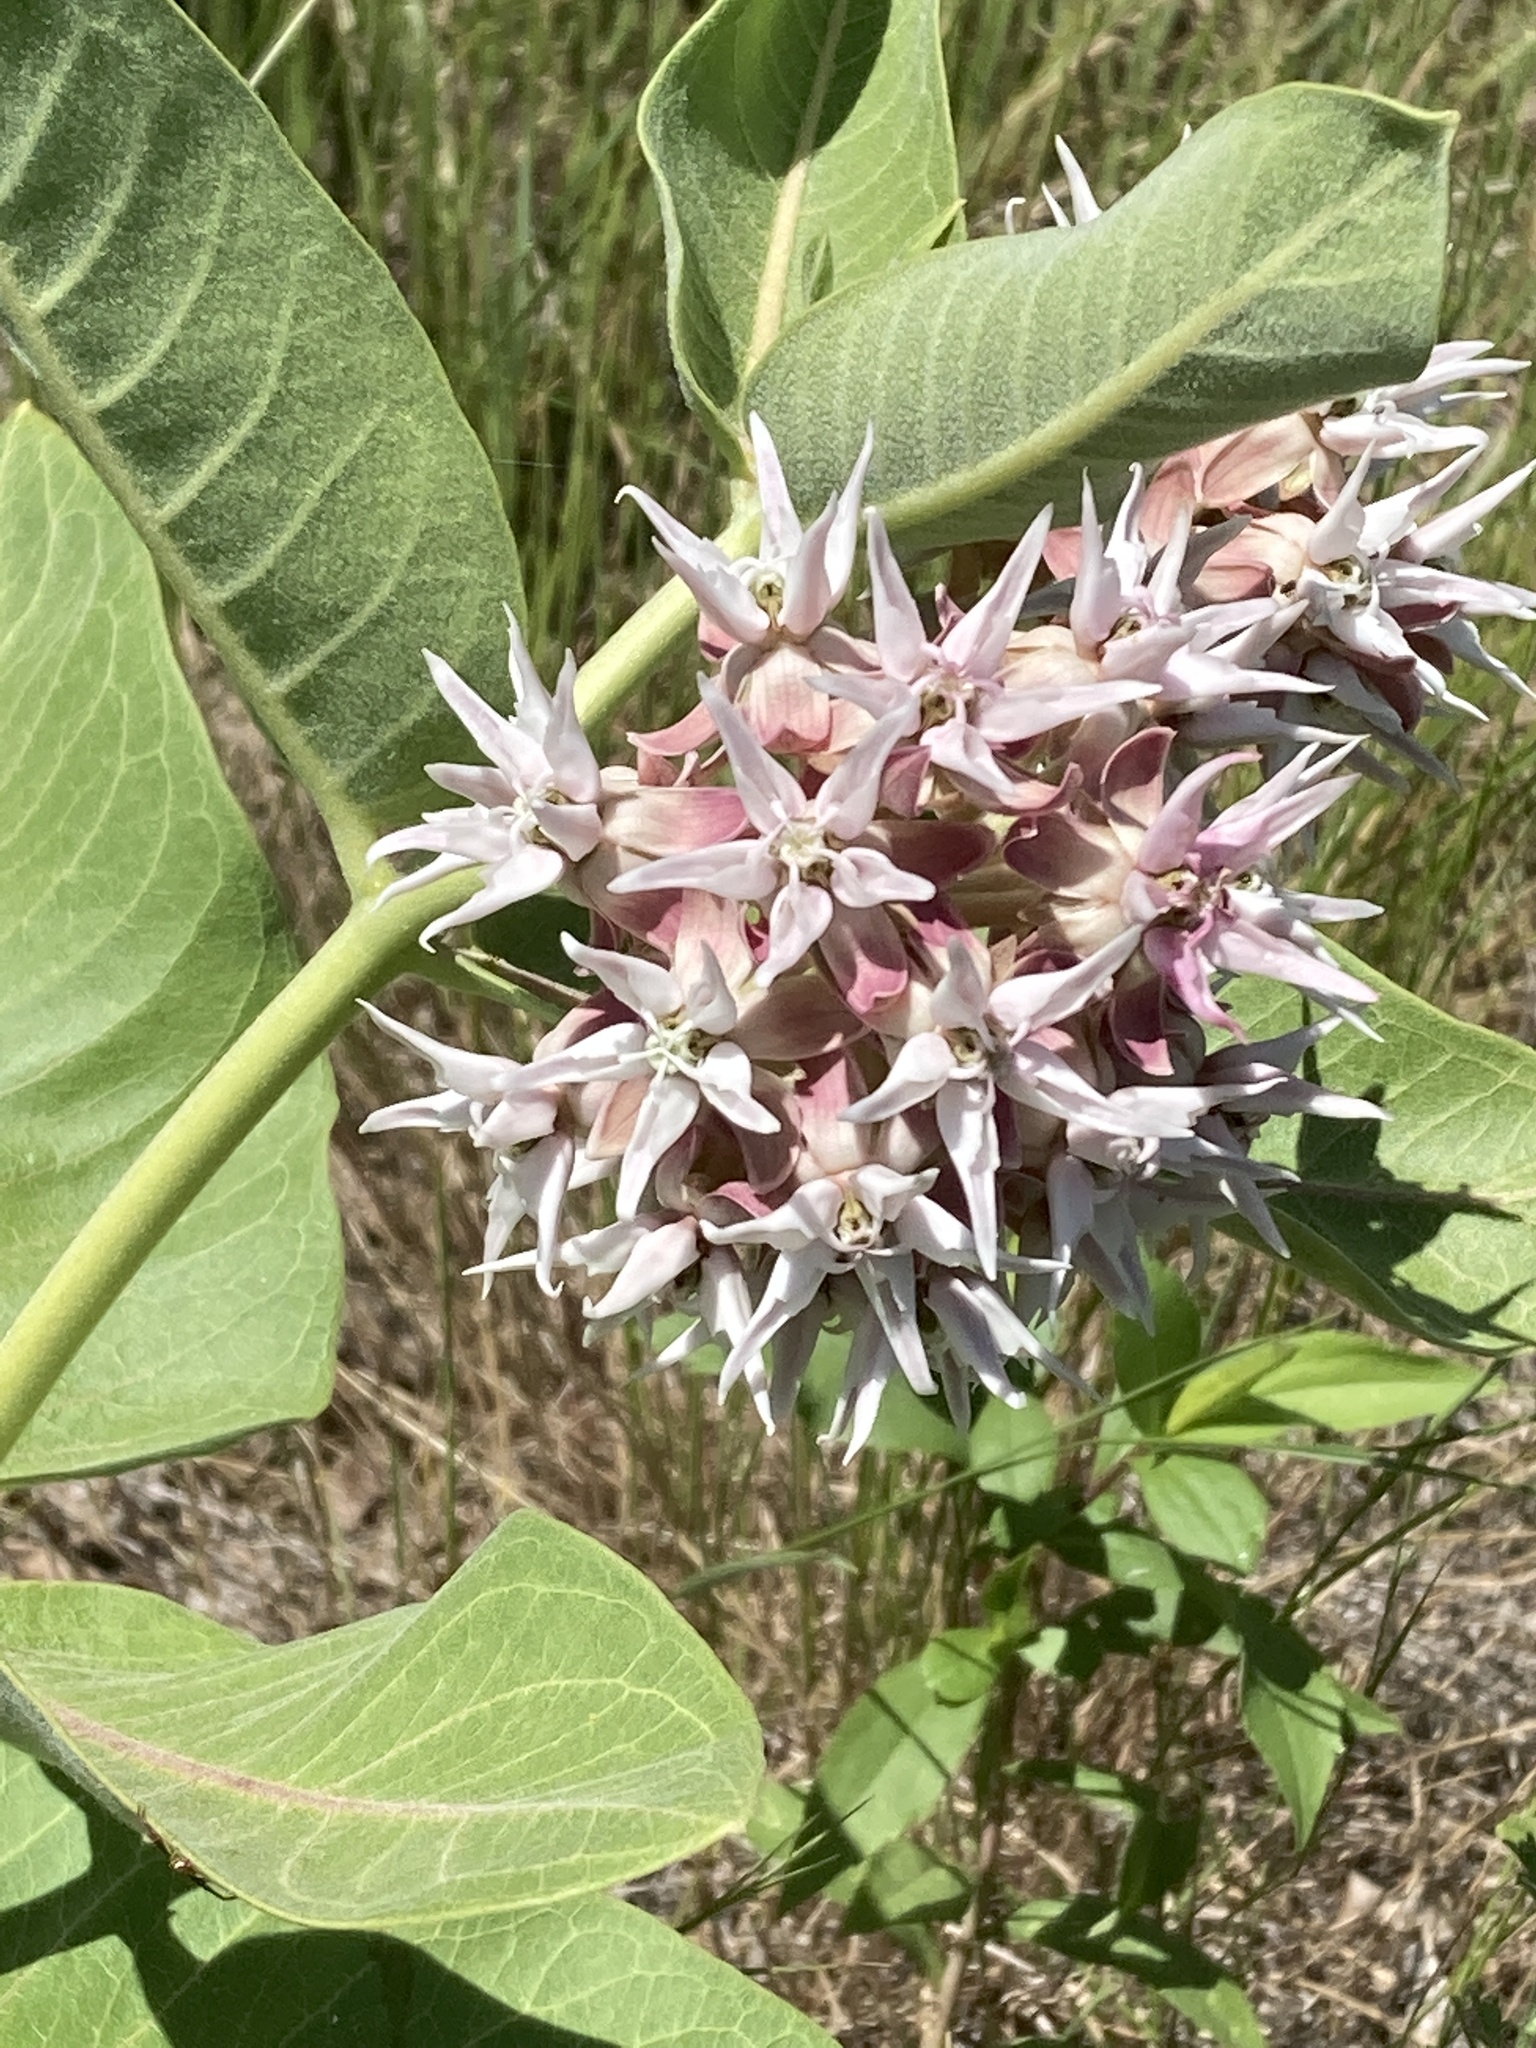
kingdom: Plantae
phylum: Tracheophyta
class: Magnoliopsida
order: Gentianales
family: Apocynaceae
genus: Asclepias
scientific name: Asclepias speciosa
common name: Showy milkweed
